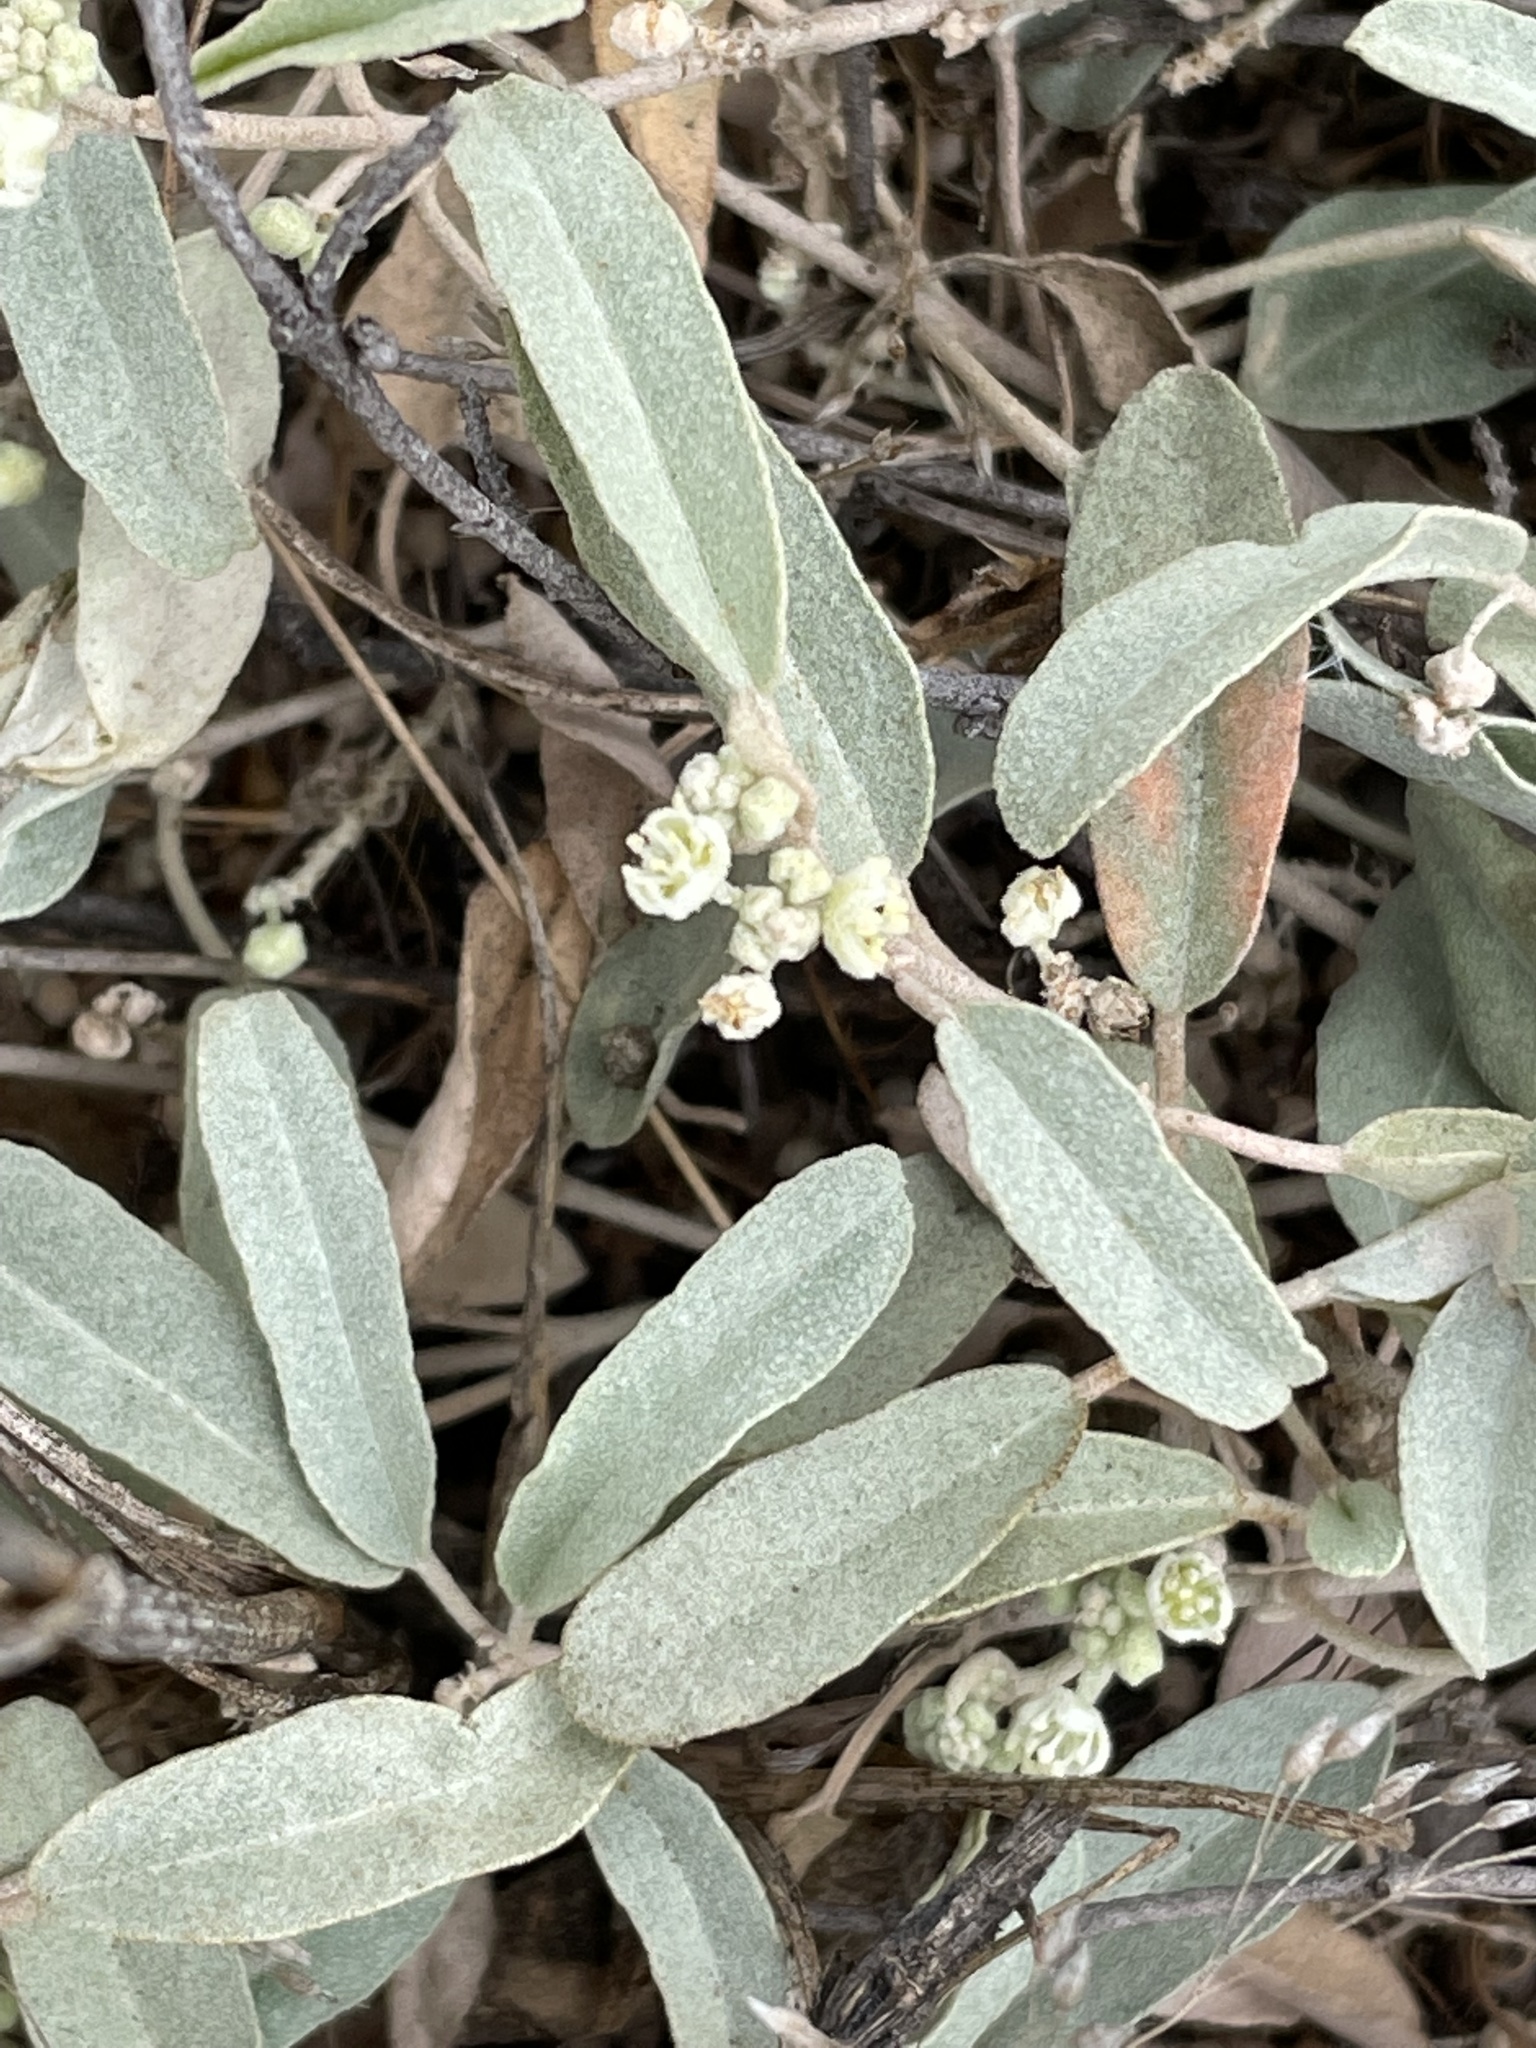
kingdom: Plantae
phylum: Tracheophyta
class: Magnoliopsida
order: Malpighiales
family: Euphorbiaceae
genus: Croton
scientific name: Croton californicus
